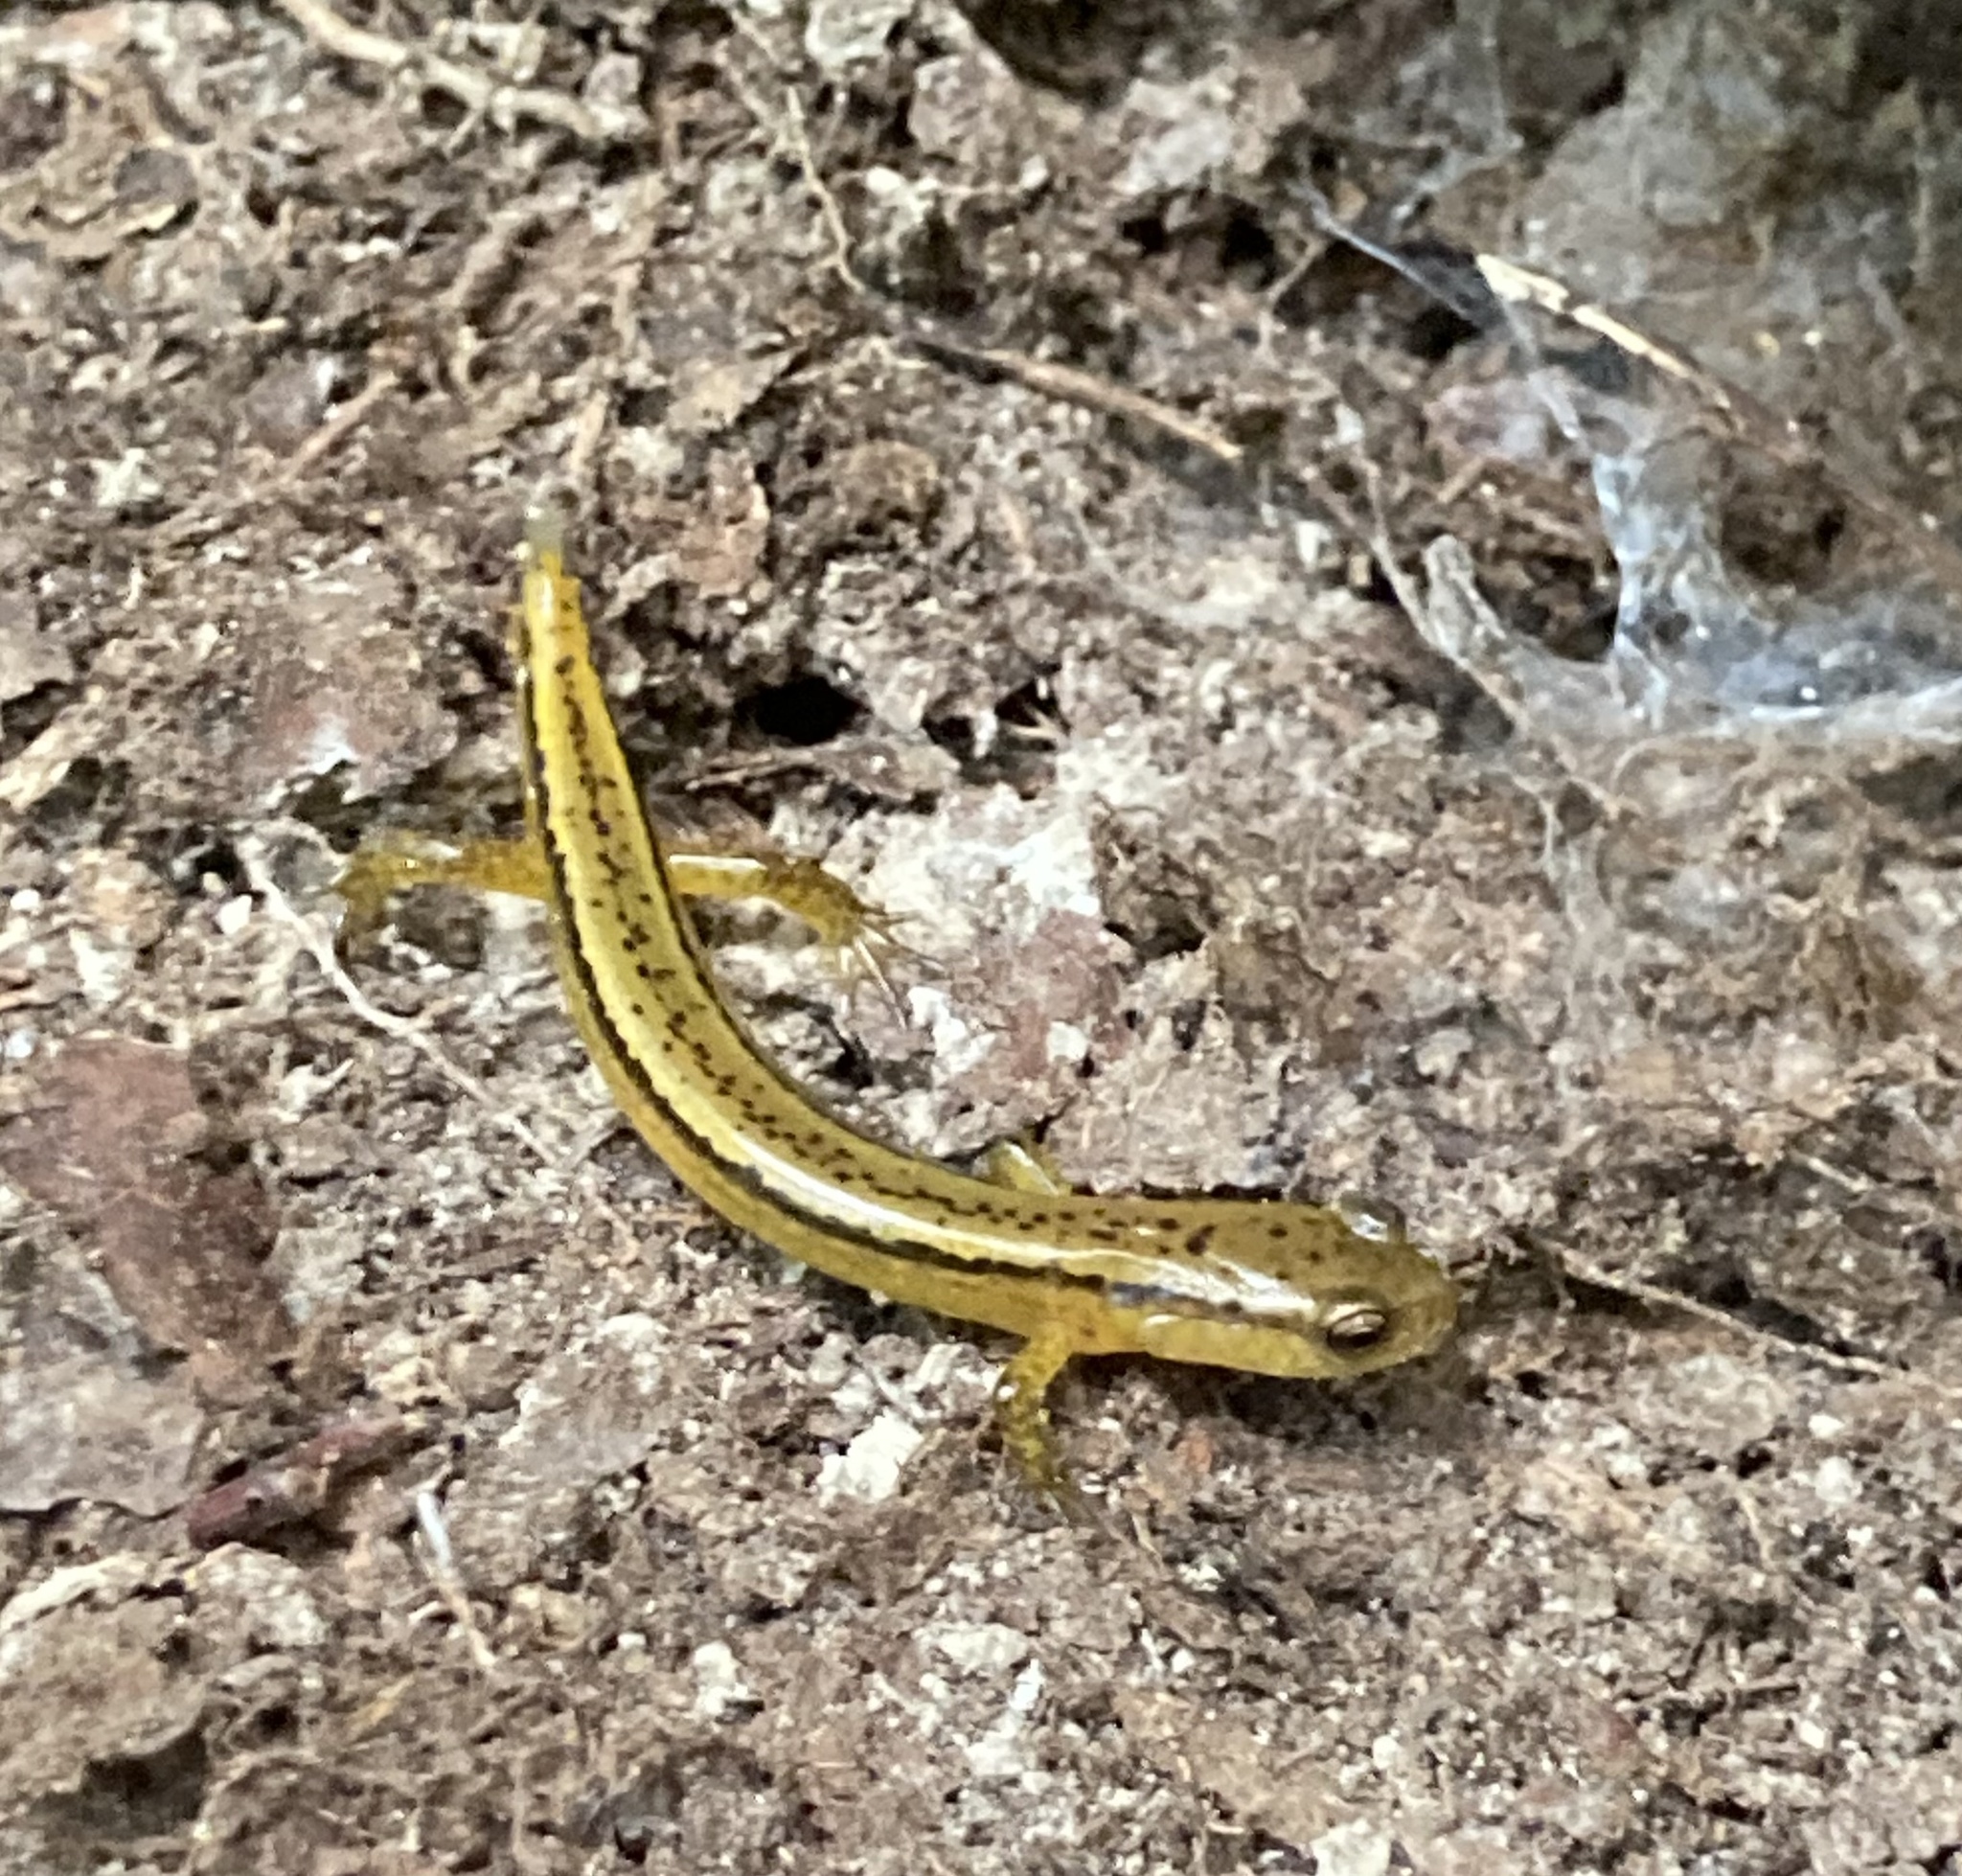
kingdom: Animalia
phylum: Chordata
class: Amphibia
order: Caudata
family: Plethodontidae
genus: Eurycea
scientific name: Eurycea cirrigera
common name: Southern two-lined salamander
